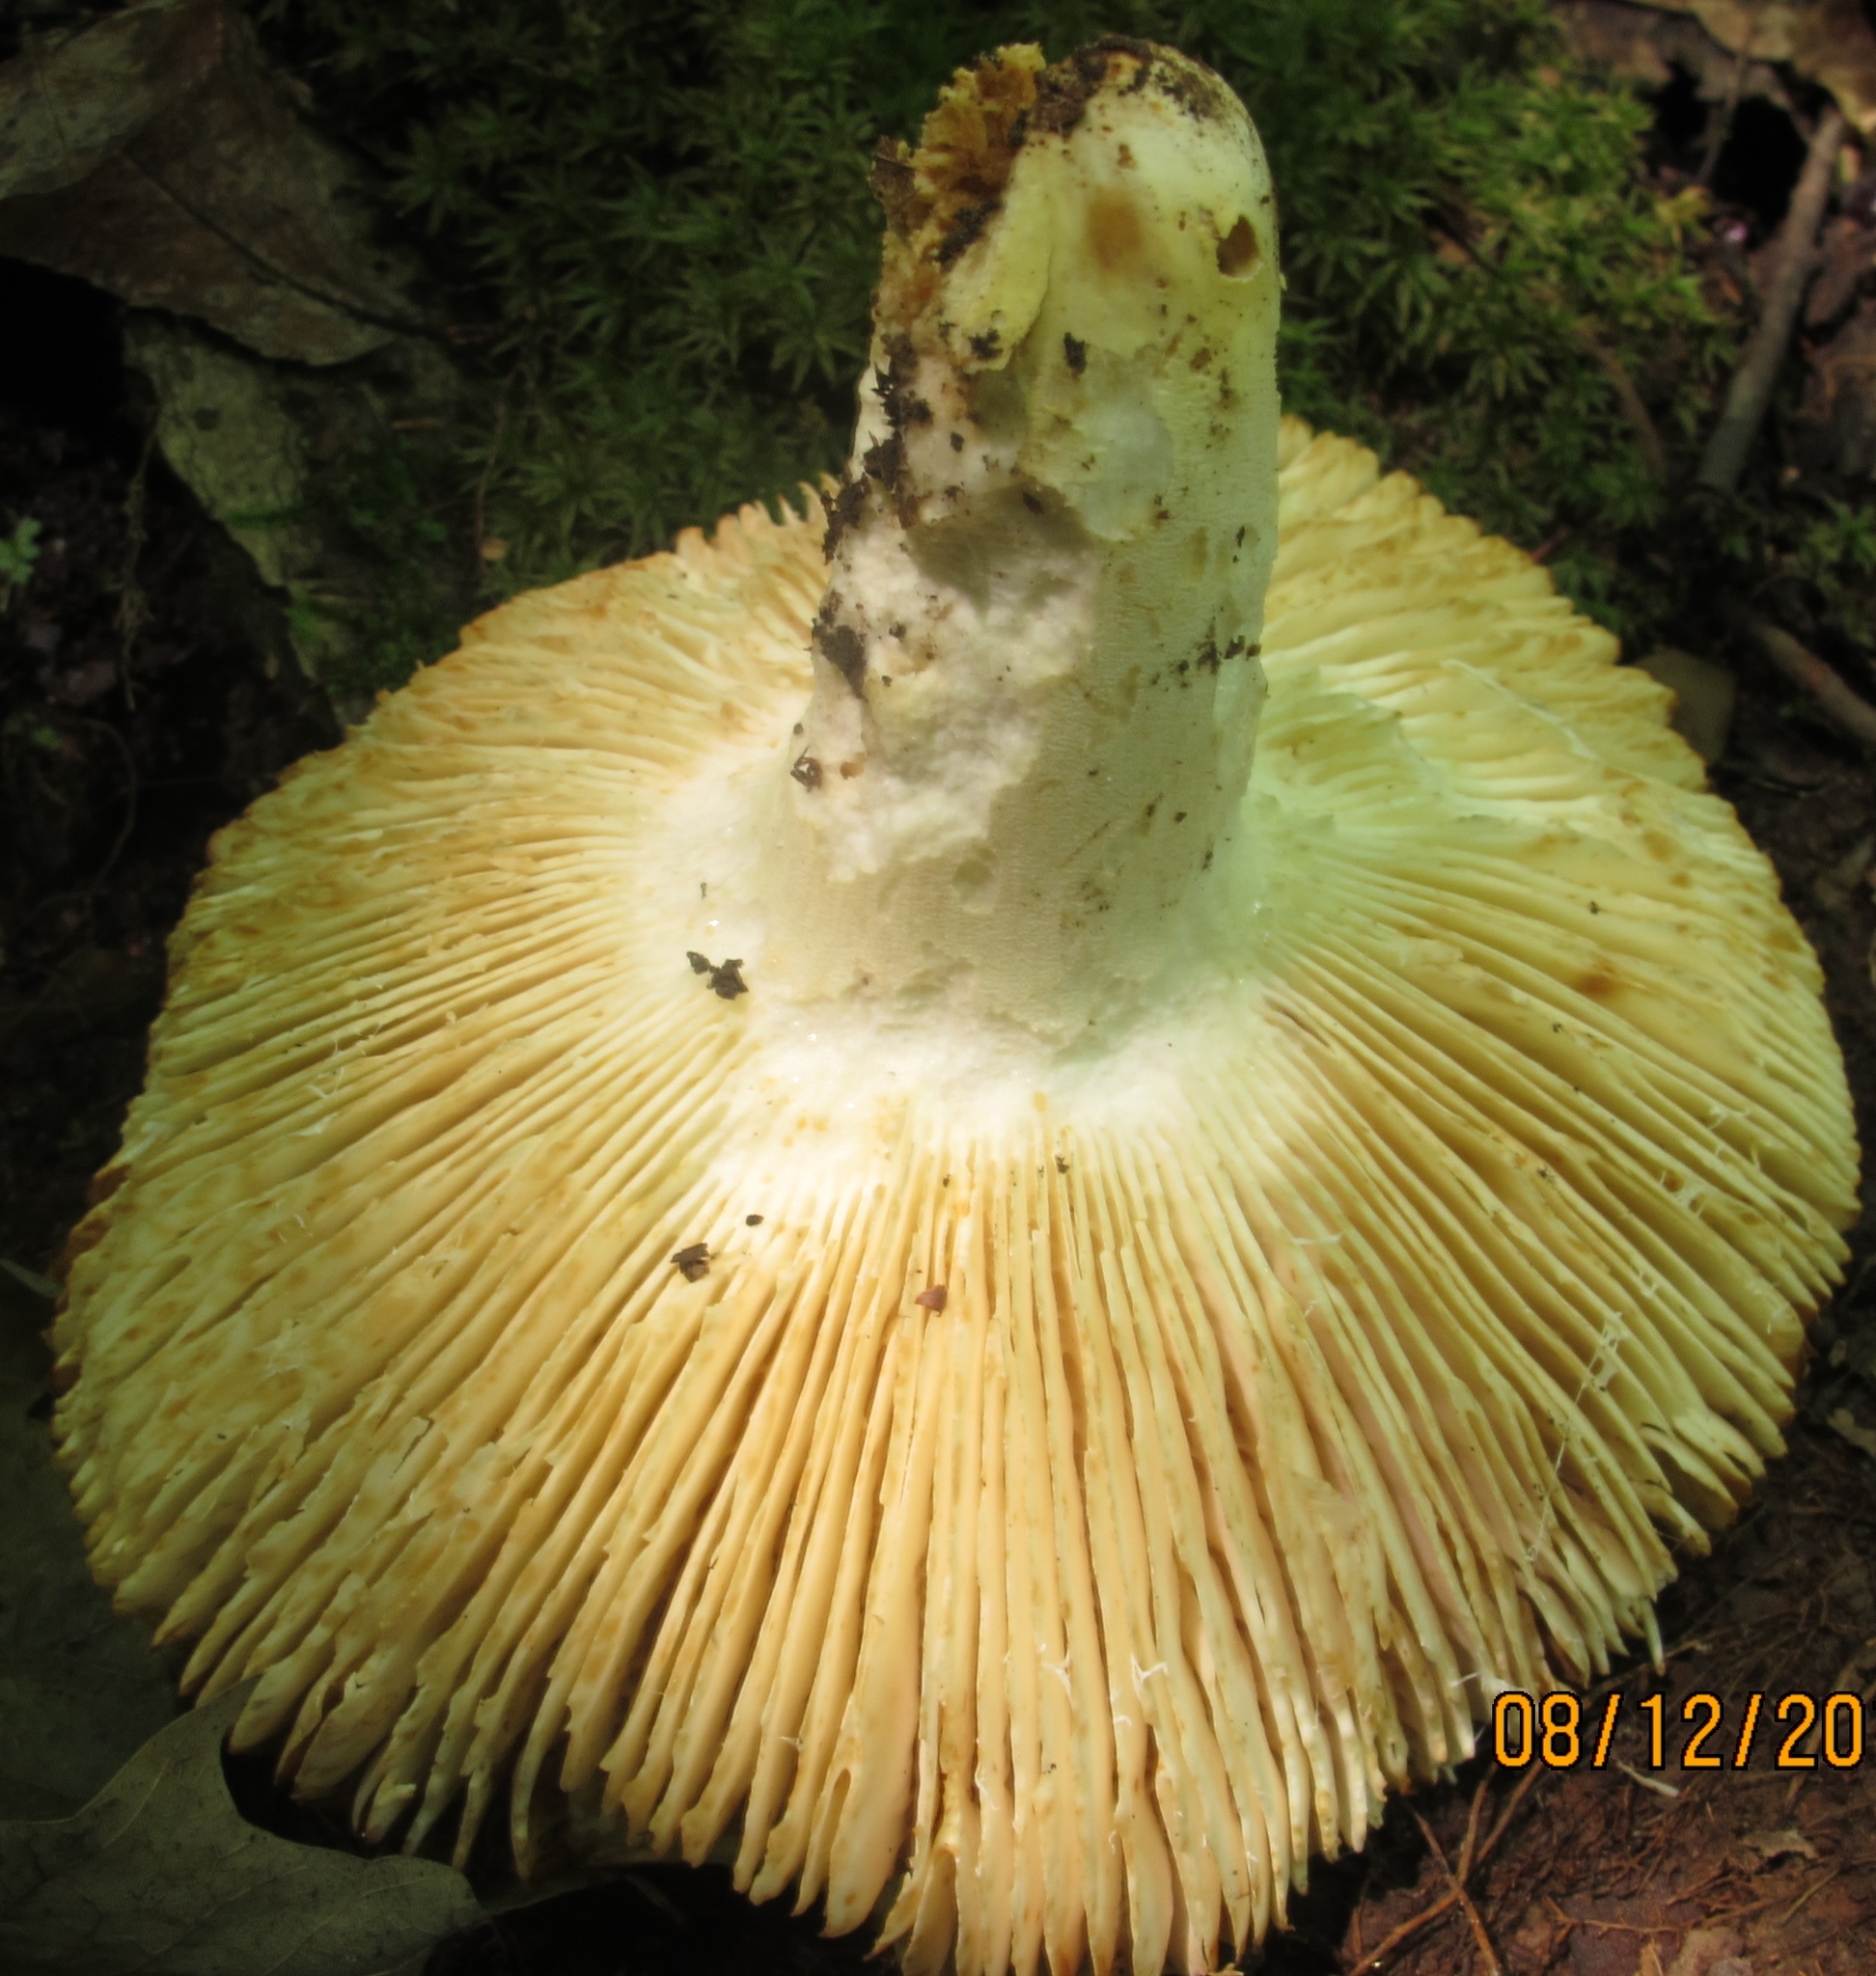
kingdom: Fungi
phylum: Basidiomycota
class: Agaricomycetes
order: Russulales
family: Russulaceae
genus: Russula
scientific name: Russula ochroleucoides
